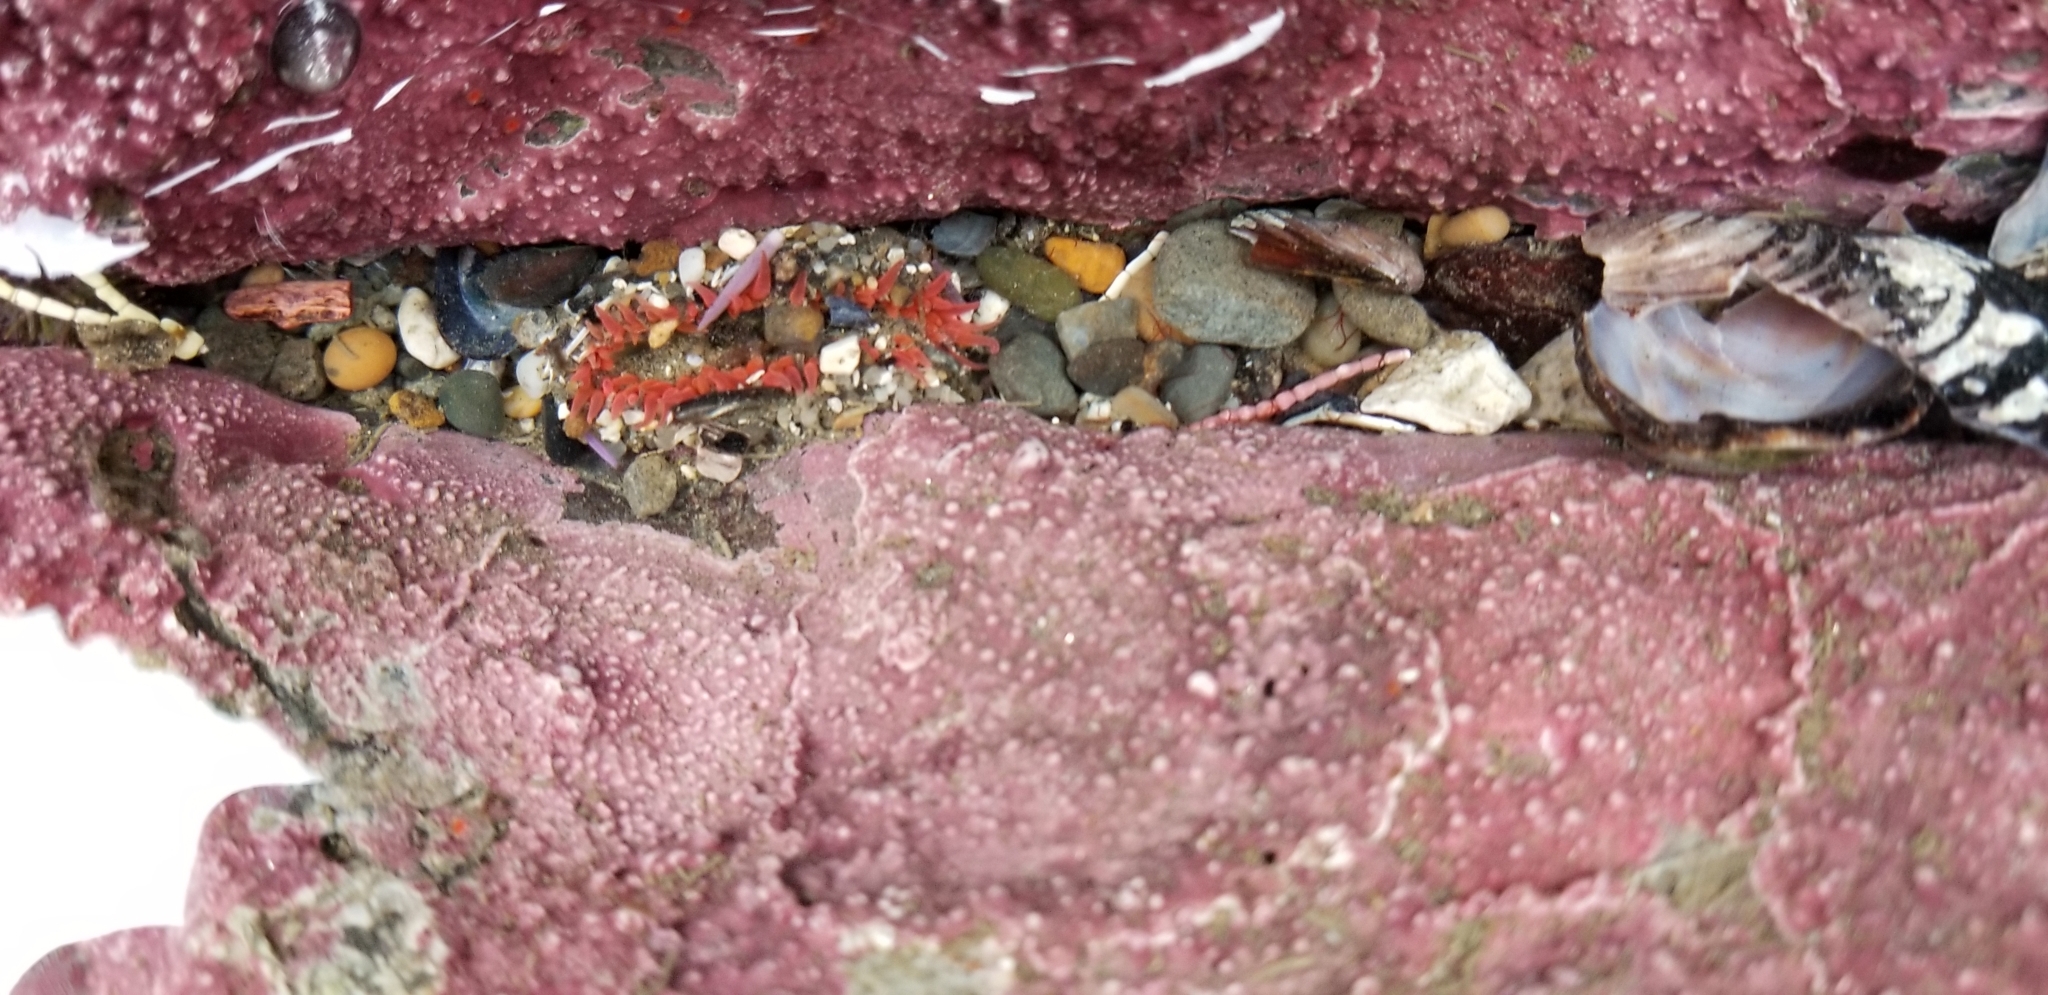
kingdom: Animalia
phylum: Cnidaria
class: Anthozoa
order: Actiniaria
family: Actiniidae
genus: Anthopleura
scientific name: Anthopleura artemisia
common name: Buried sea anemone
